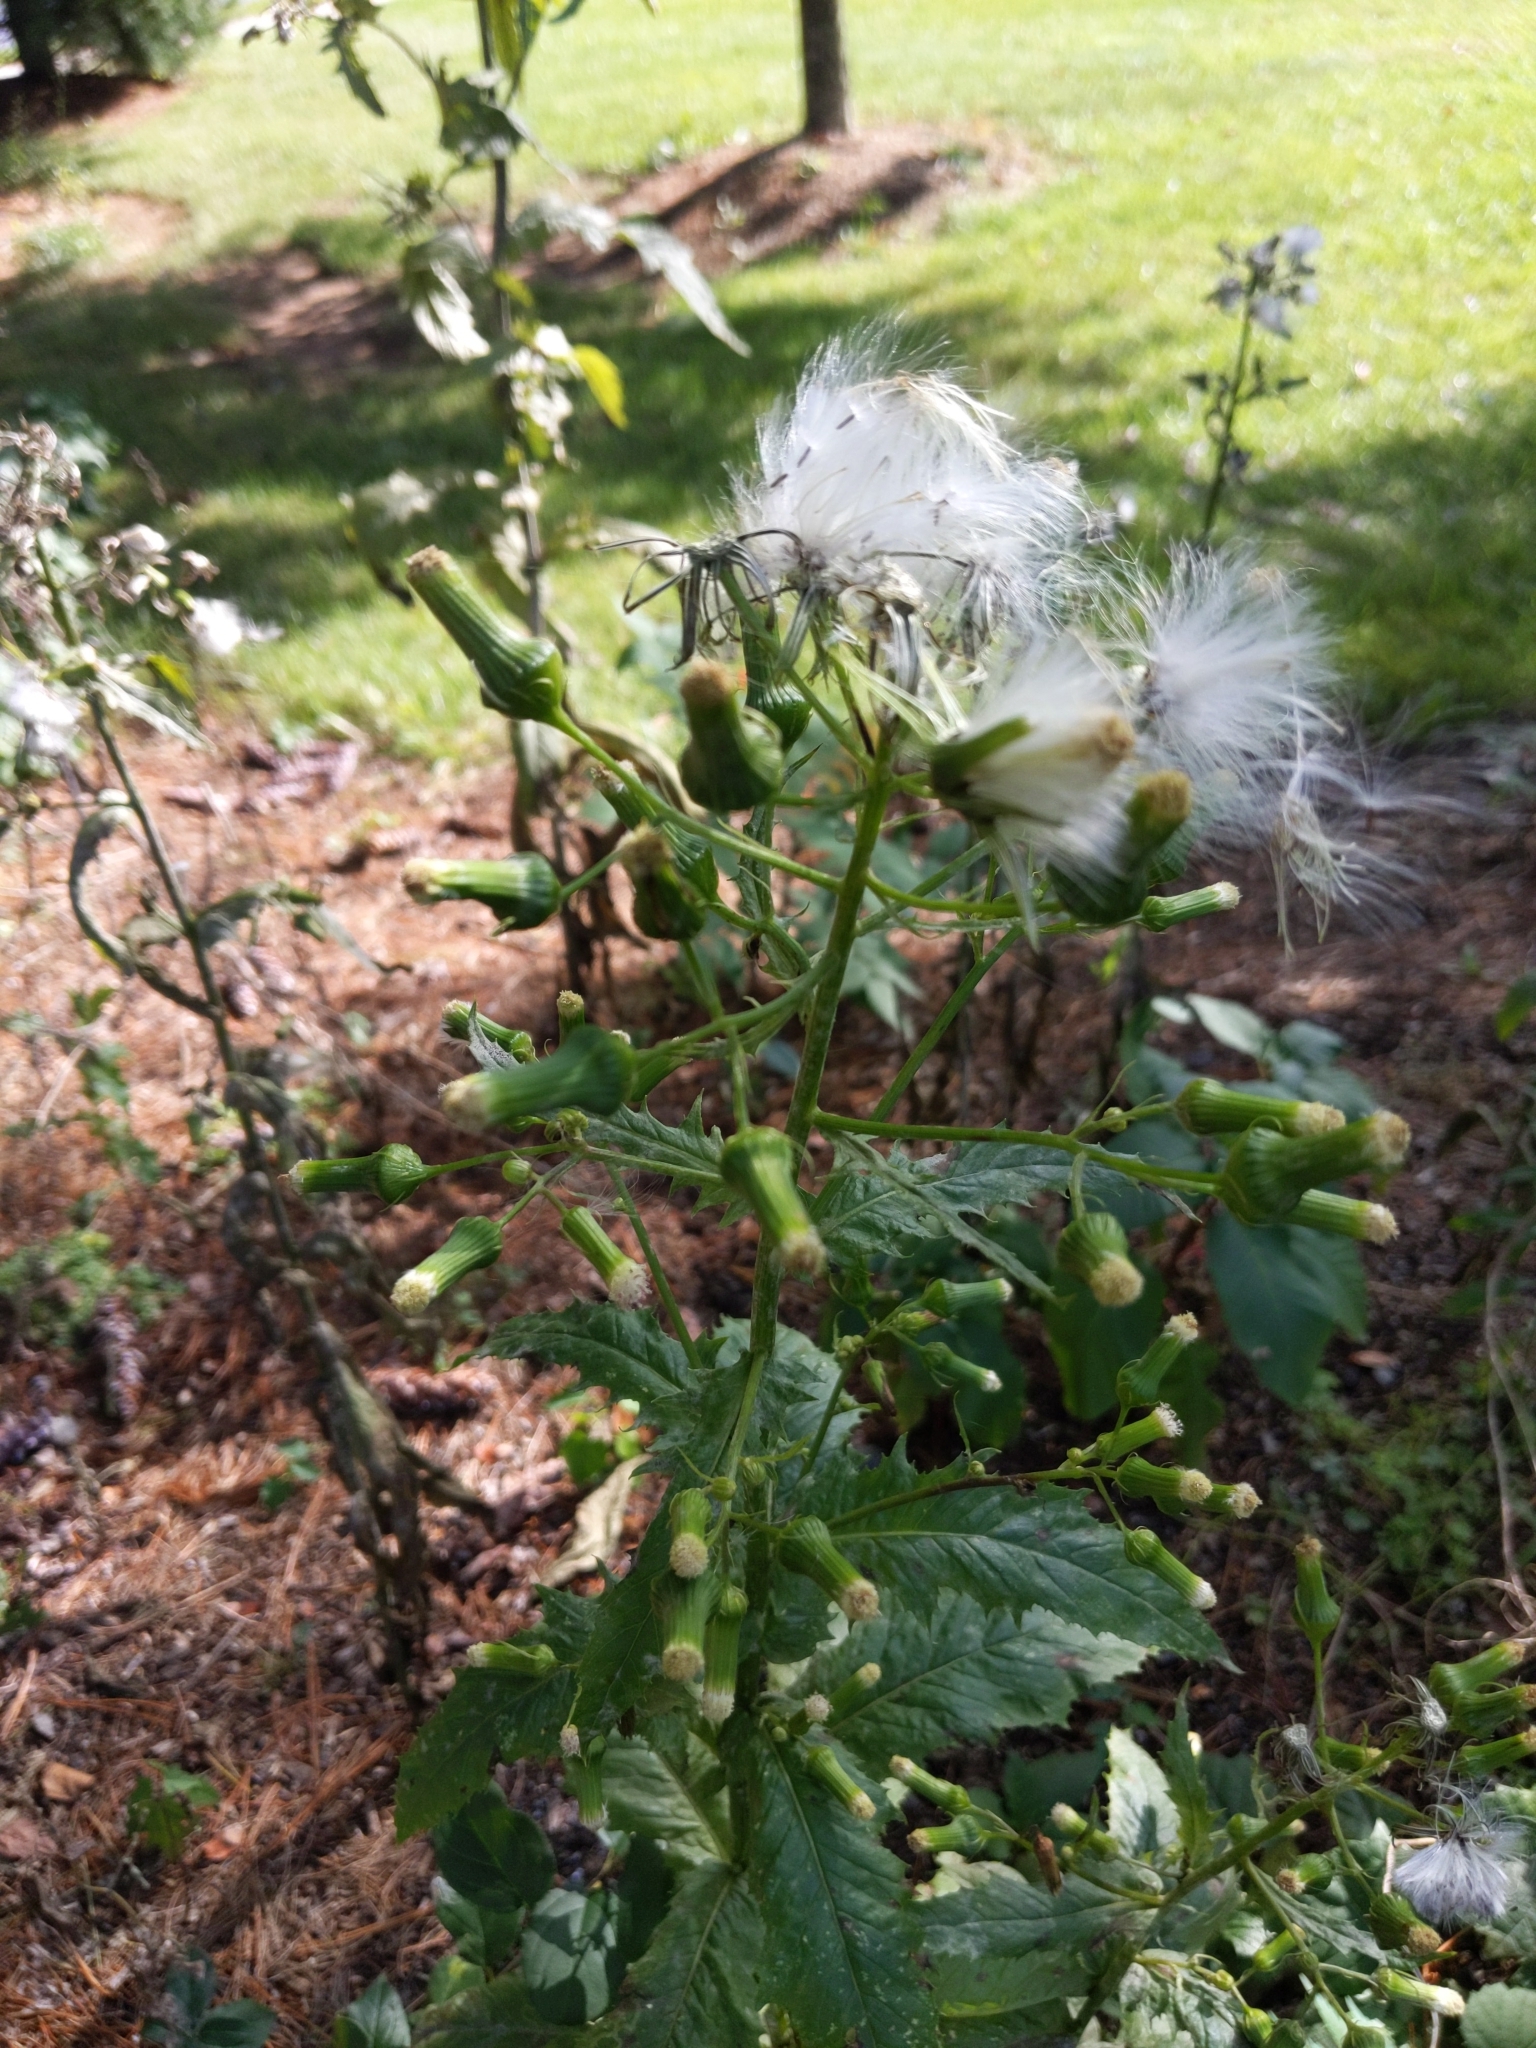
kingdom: Plantae
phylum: Tracheophyta
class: Magnoliopsida
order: Asterales
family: Asteraceae
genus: Erechtites
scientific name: Erechtites hieraciifolius
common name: American burnweed
